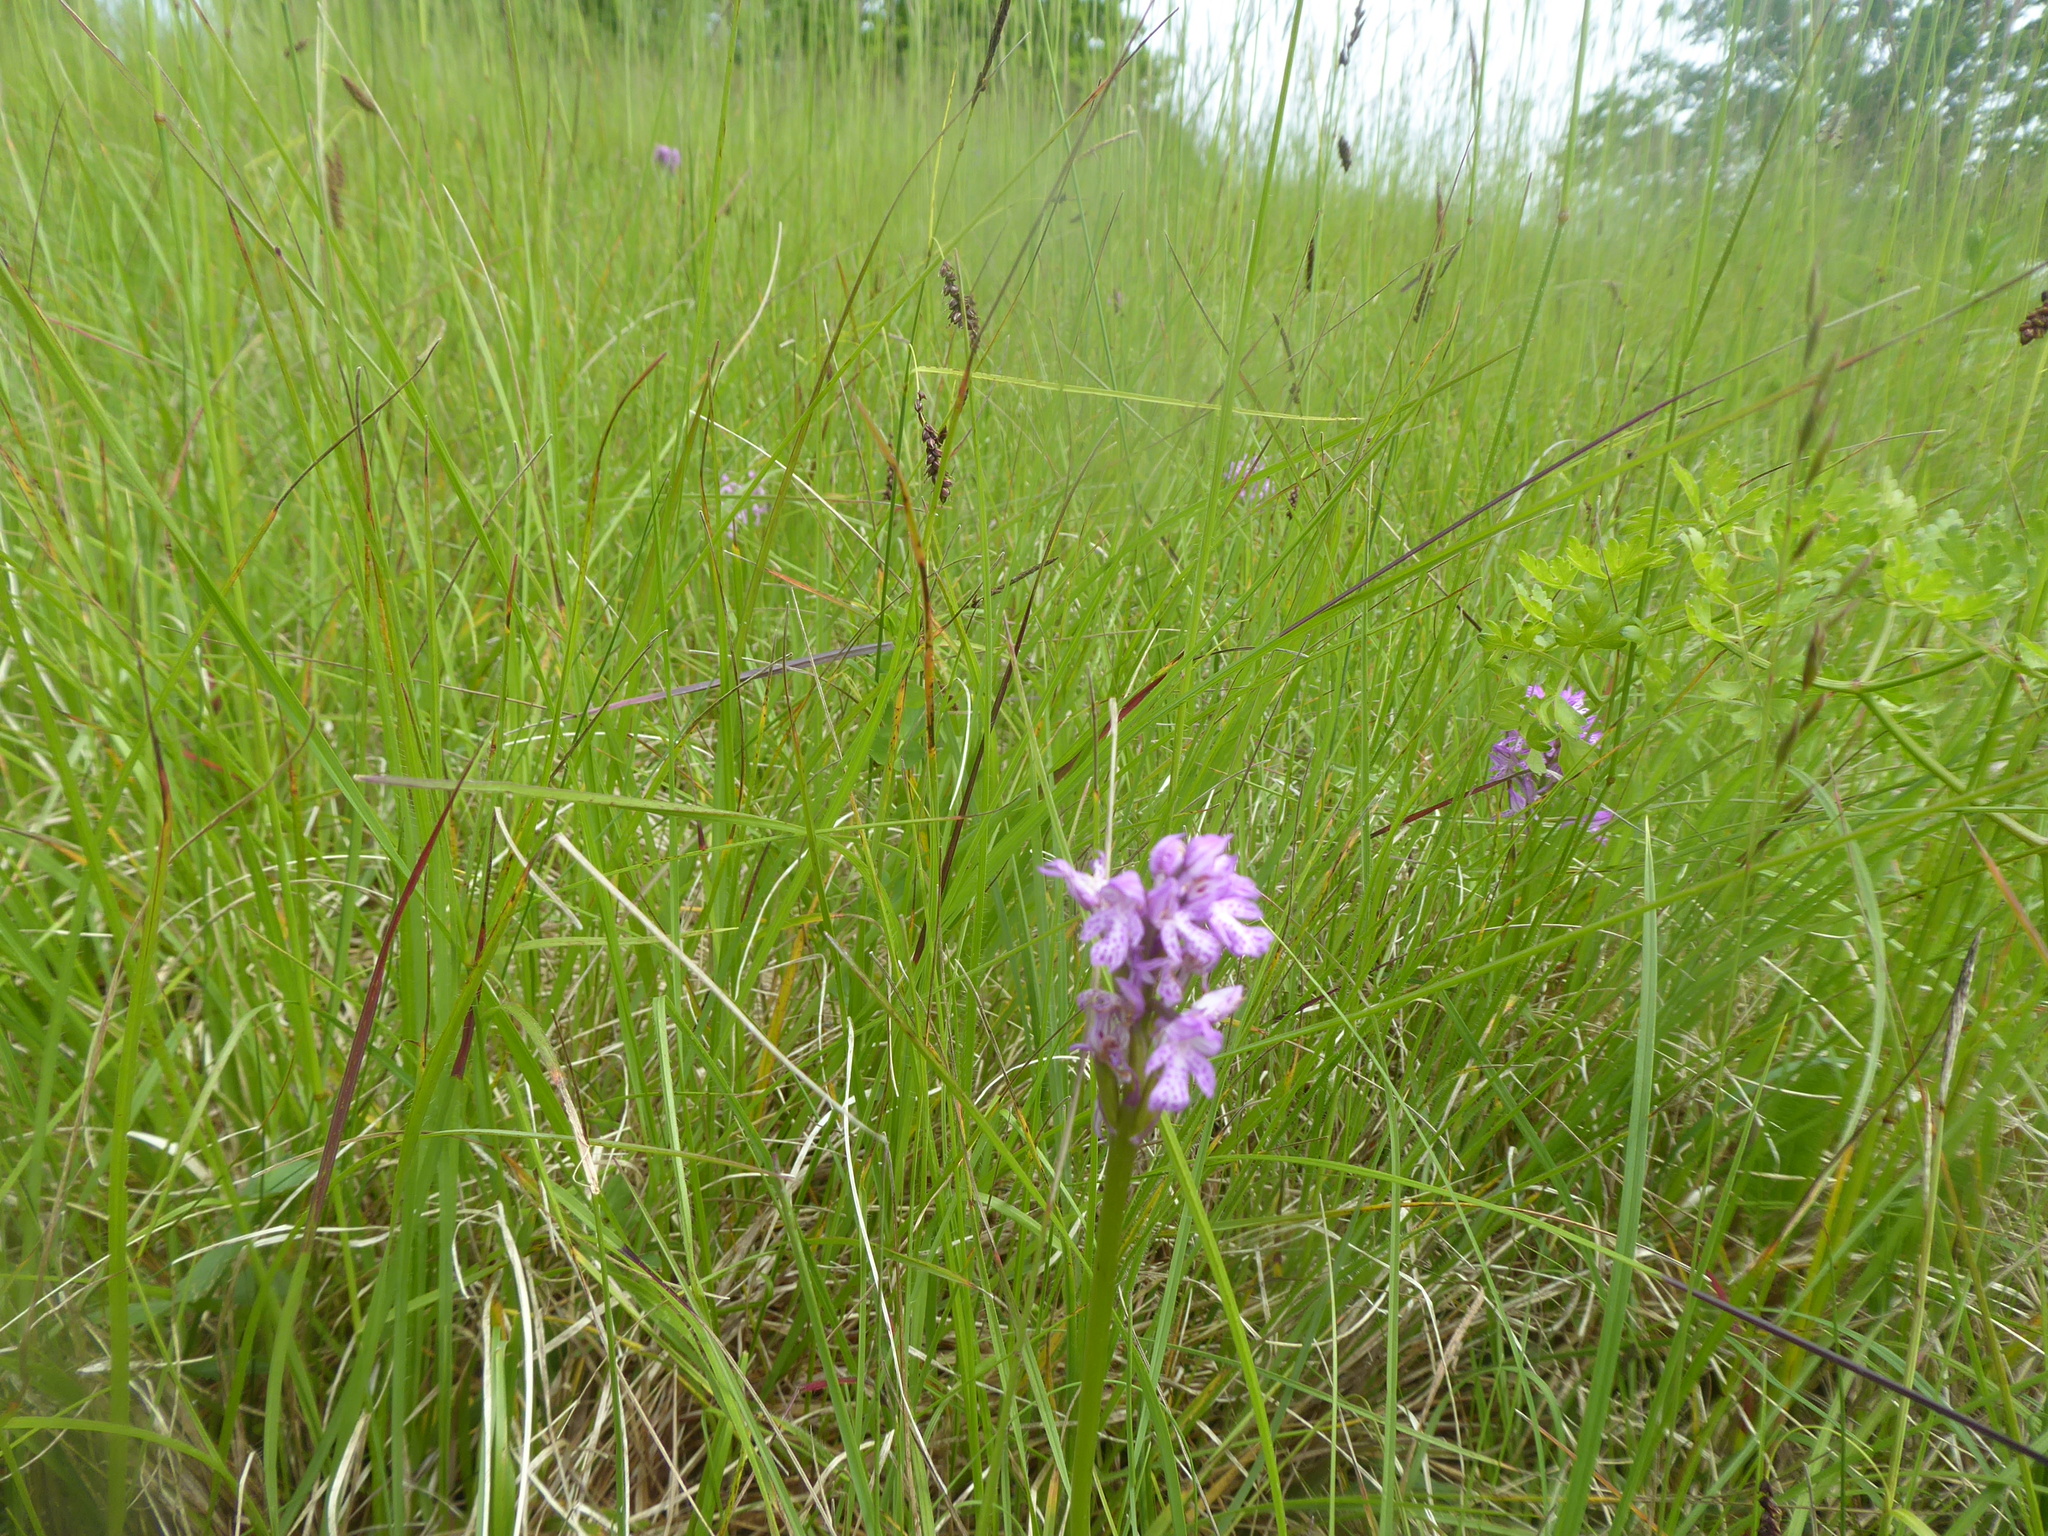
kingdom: Plantae
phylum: Tracheophyta
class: Liliopsida
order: Asparagales
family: Orchidaceae
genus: Neotinea
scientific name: Neotinea tridentata
